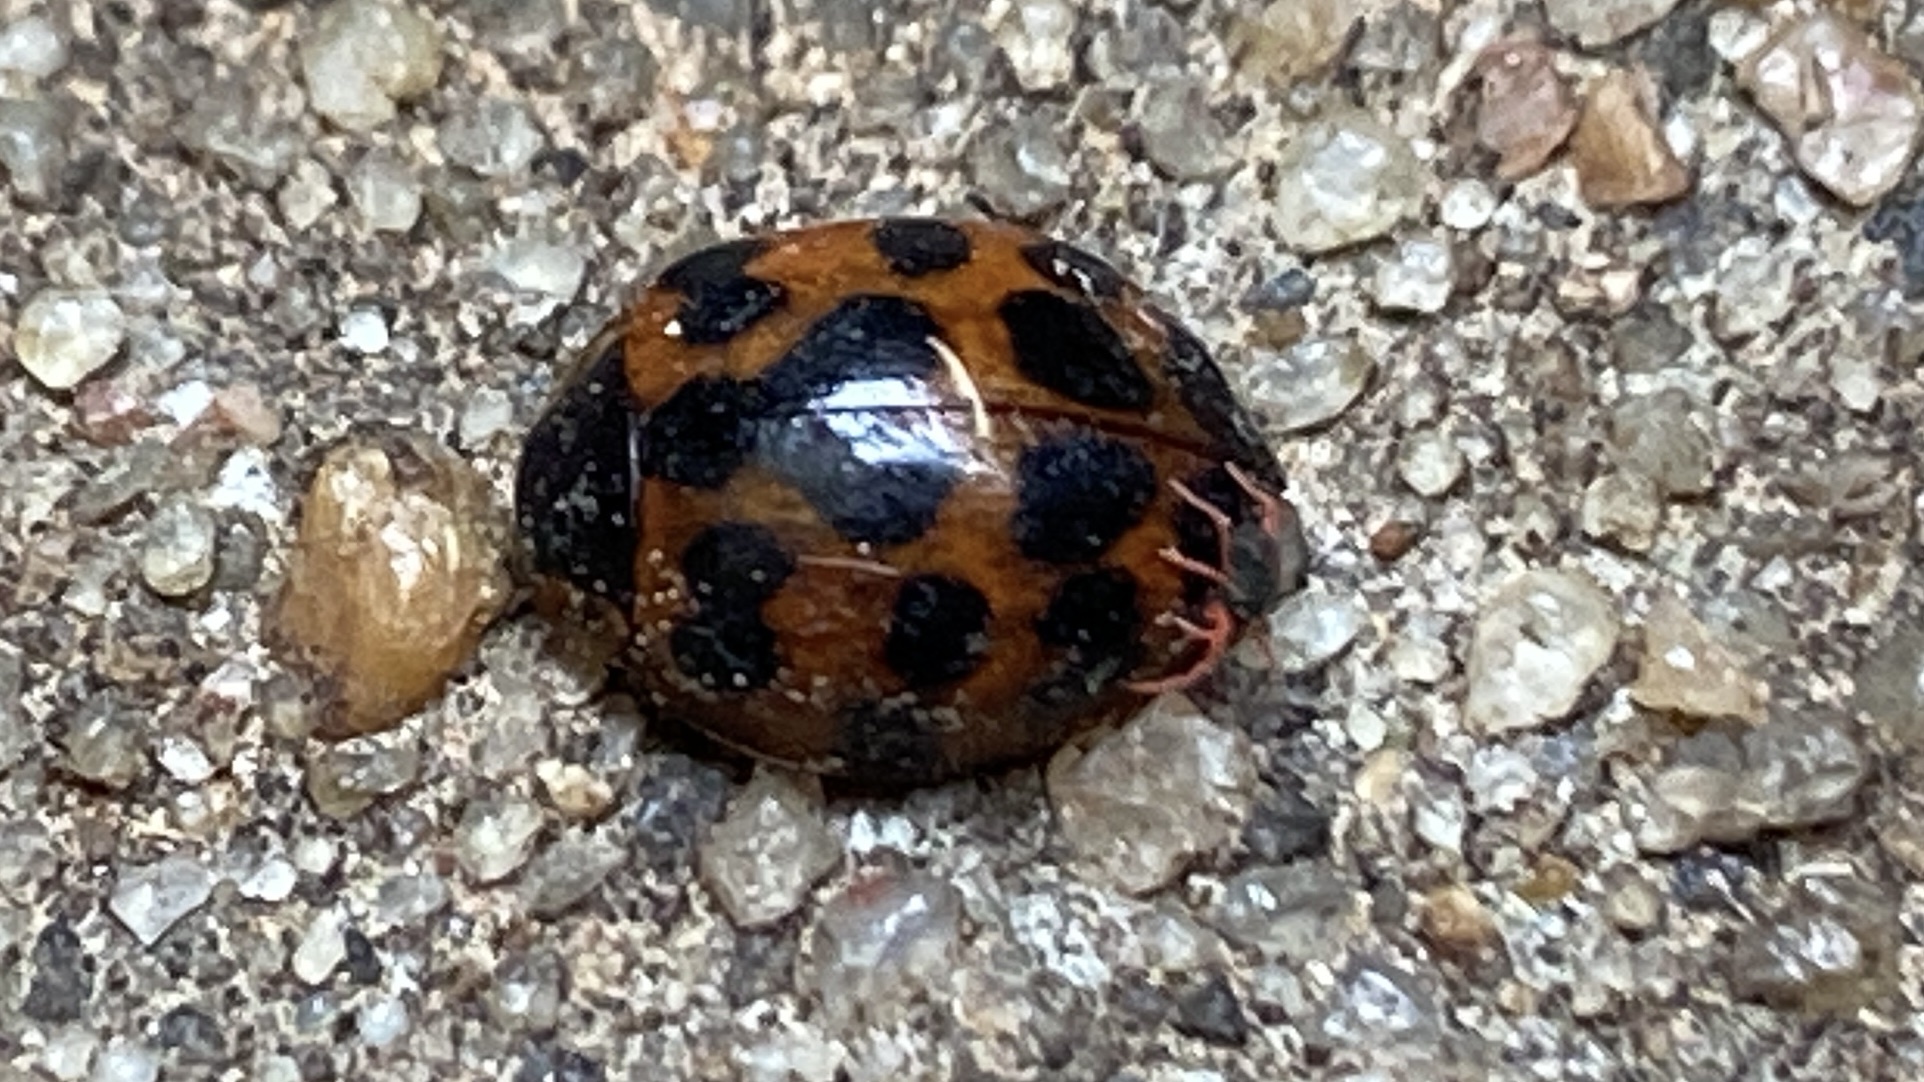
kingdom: Animalia
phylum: Arthropoda
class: Insecta
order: Coleoptera
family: Coccinellidae
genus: Harmonia
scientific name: Harmonia axyridis
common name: Harlequin ladybird
